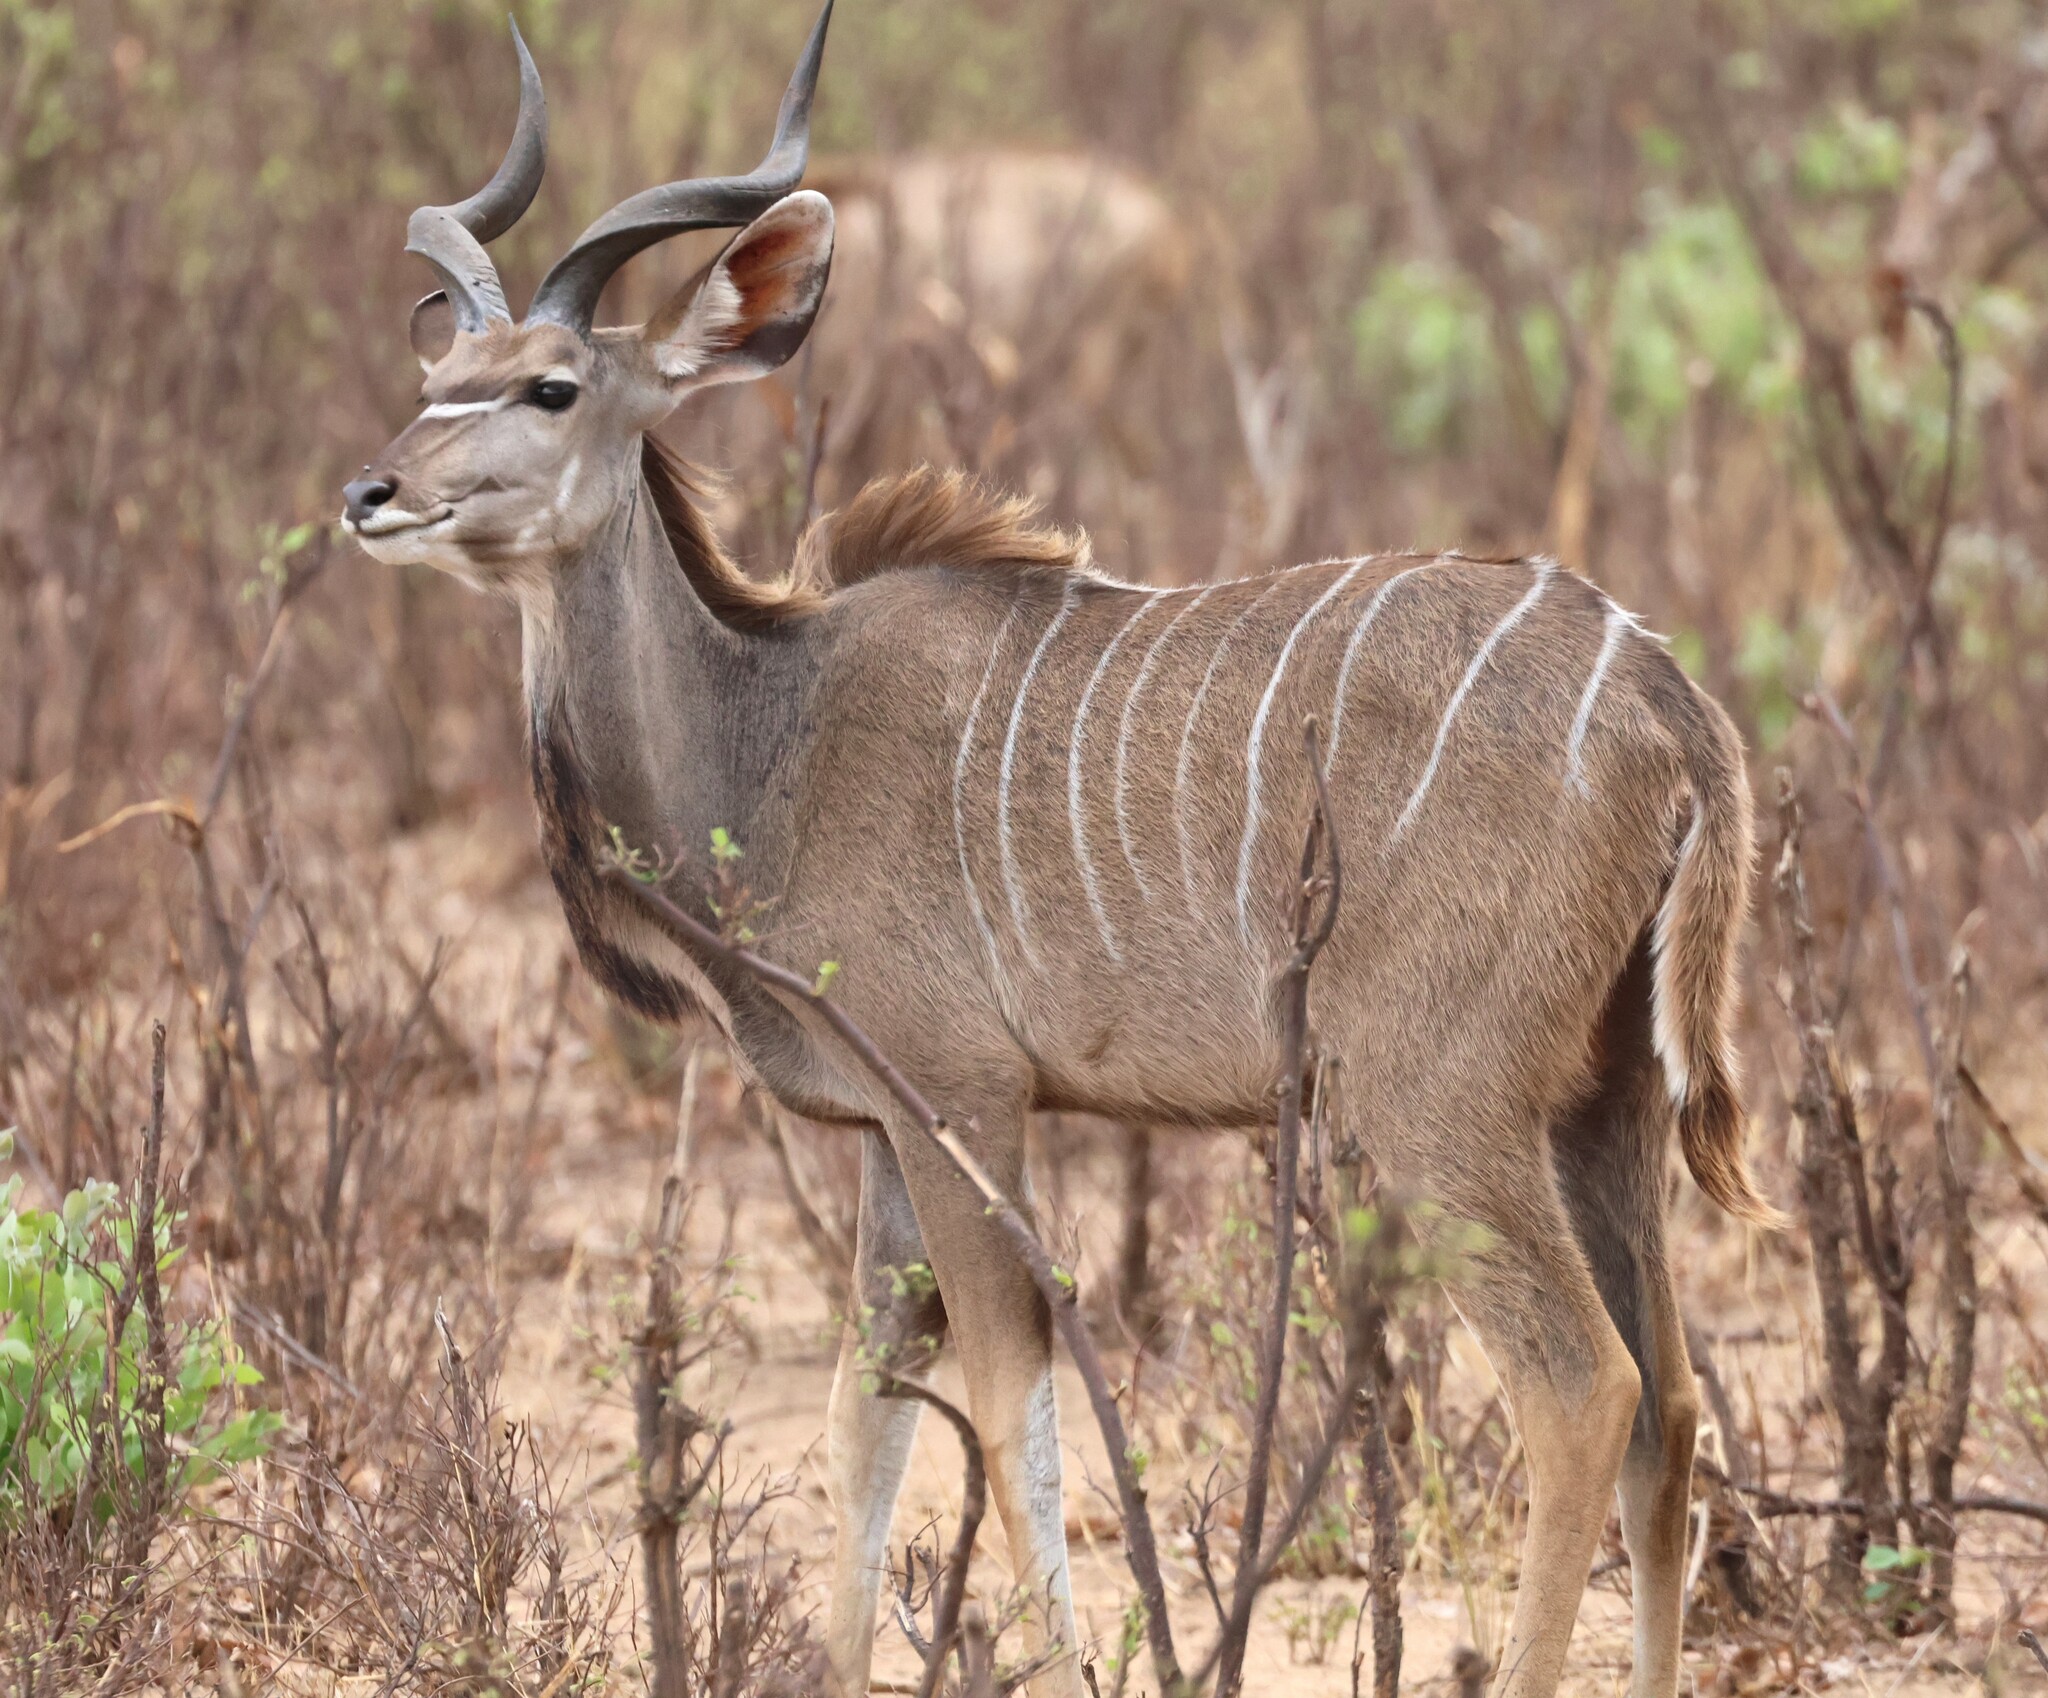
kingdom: Animalia
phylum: Chordata
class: Mammalia
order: Artiodactyla
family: Bovidae
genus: Tragelaphus
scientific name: Tragelaphus strepsiceros
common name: Greater kudu
